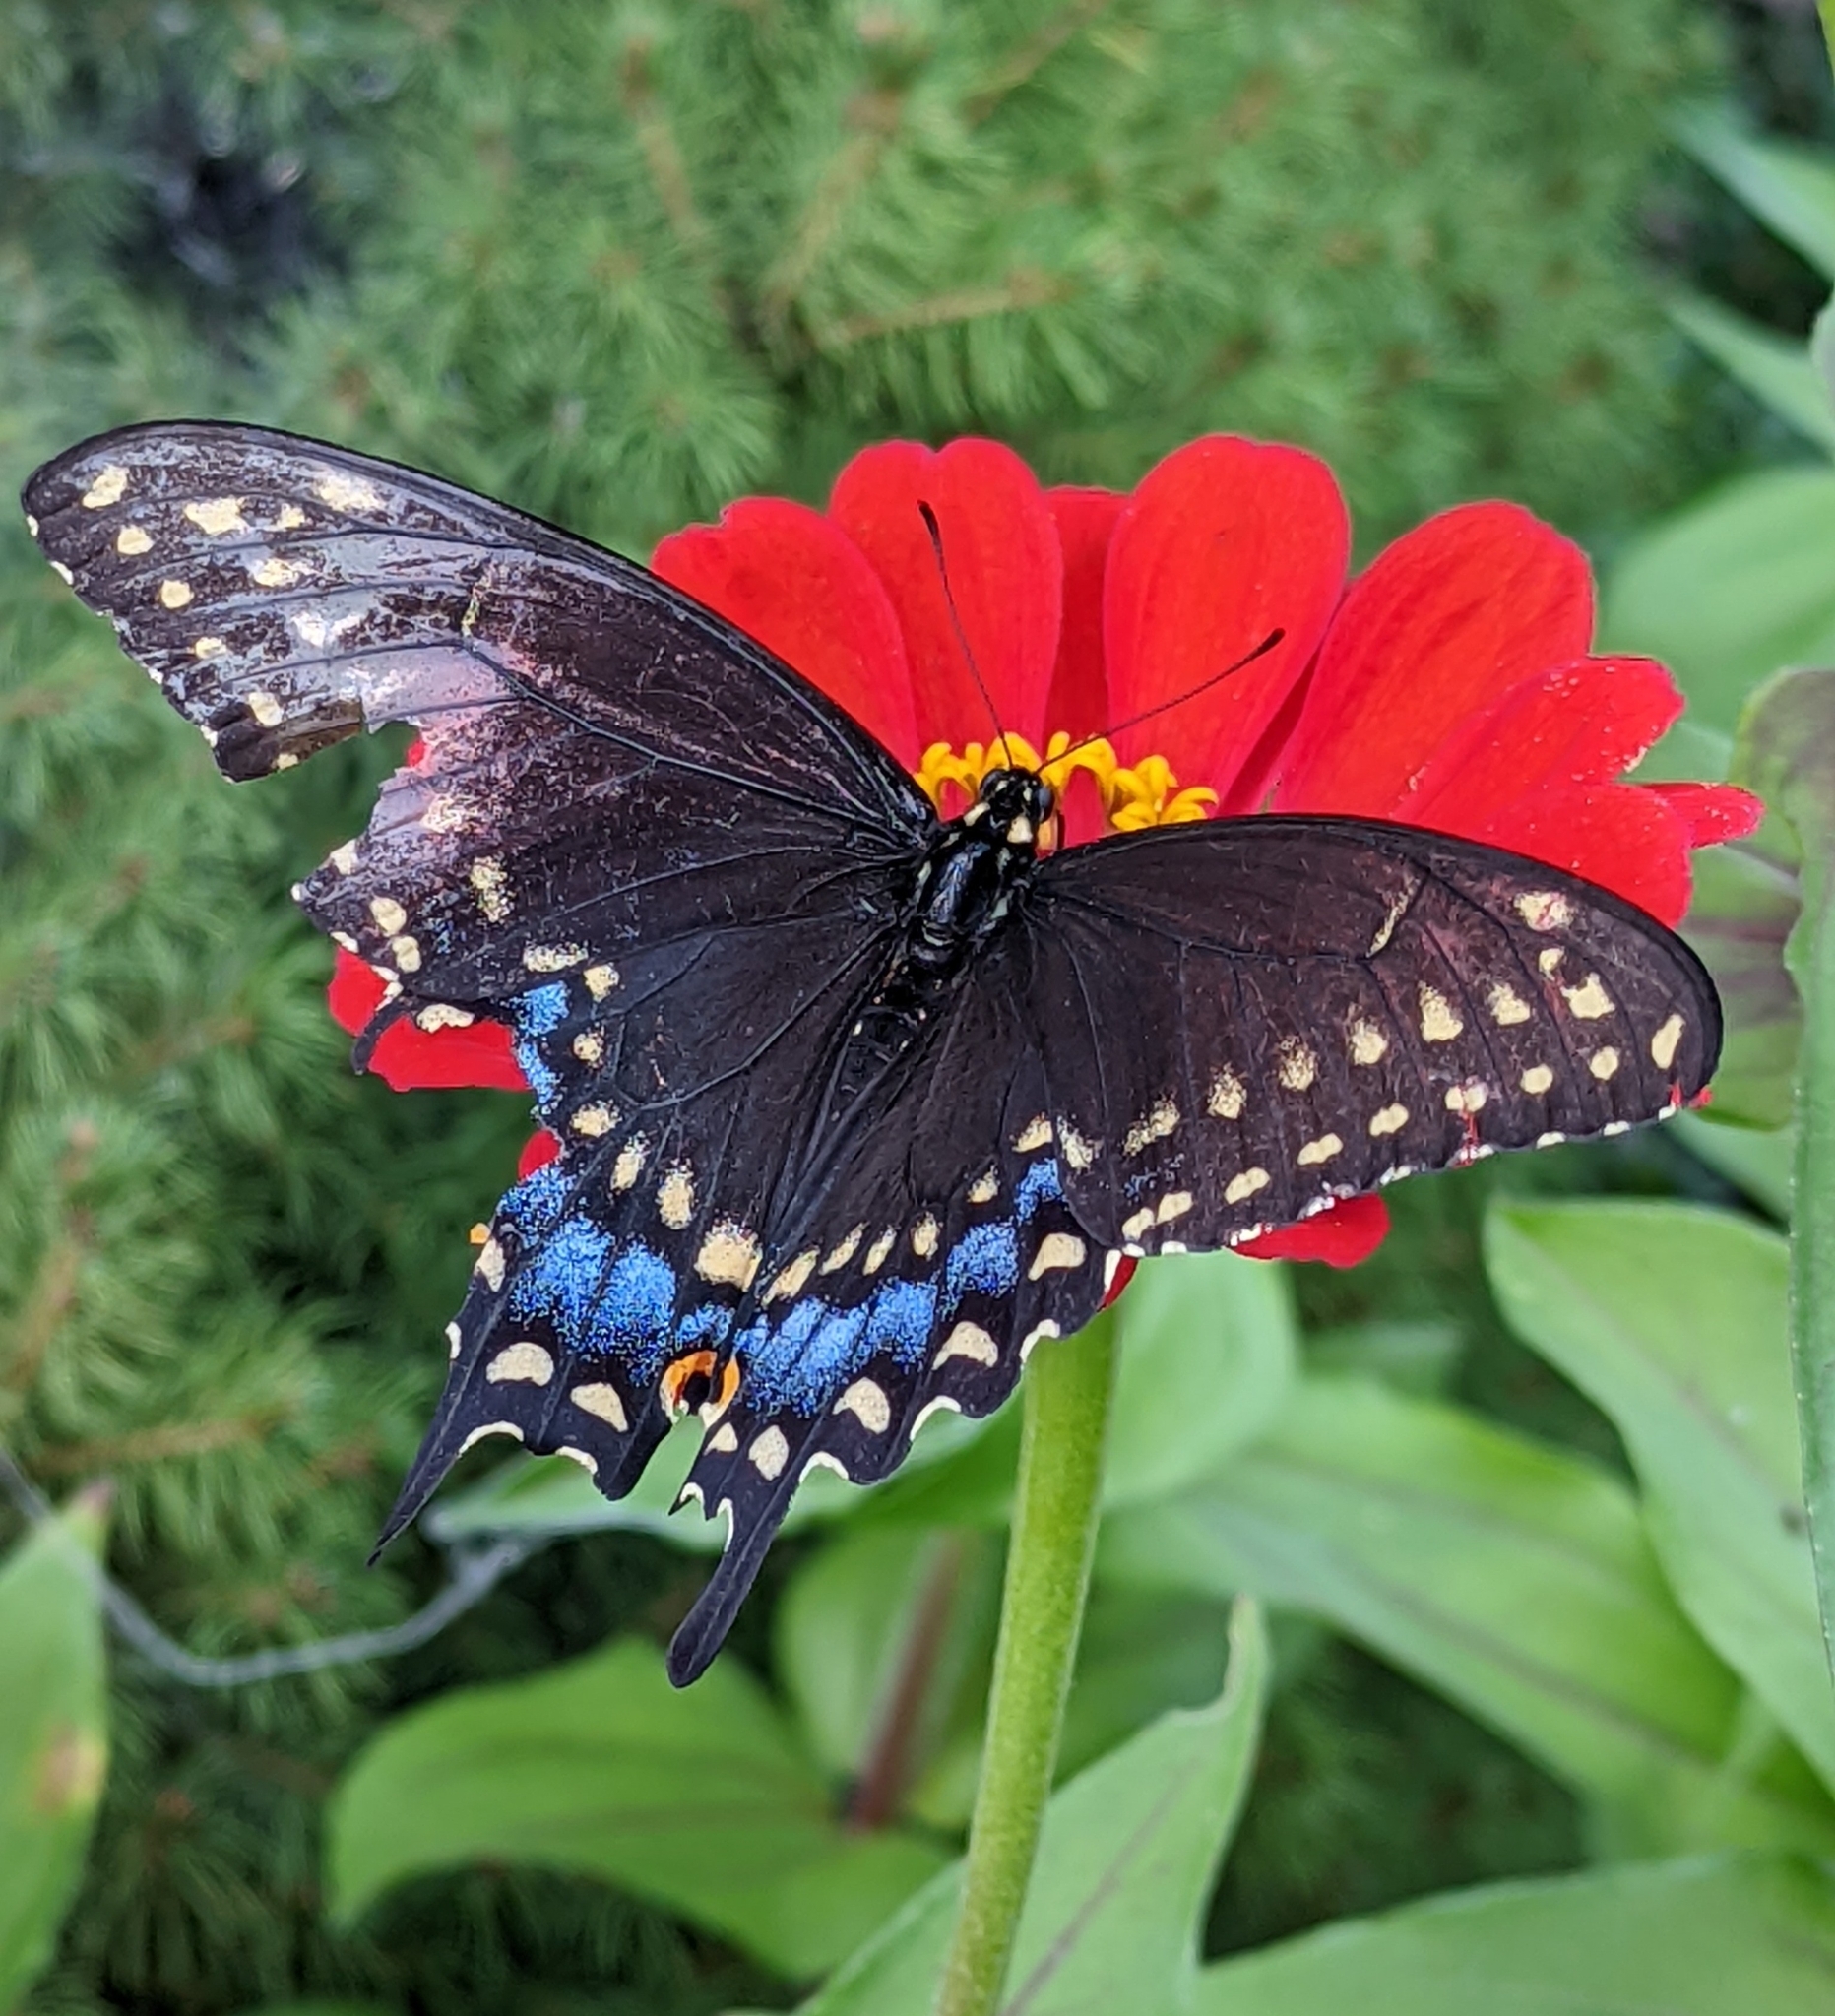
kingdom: Animalia
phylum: Arthropoda
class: Insecta
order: Lepidoptera
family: Papilionidae
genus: Papilio
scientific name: Papilio polyxenes
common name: Black swallowtail
